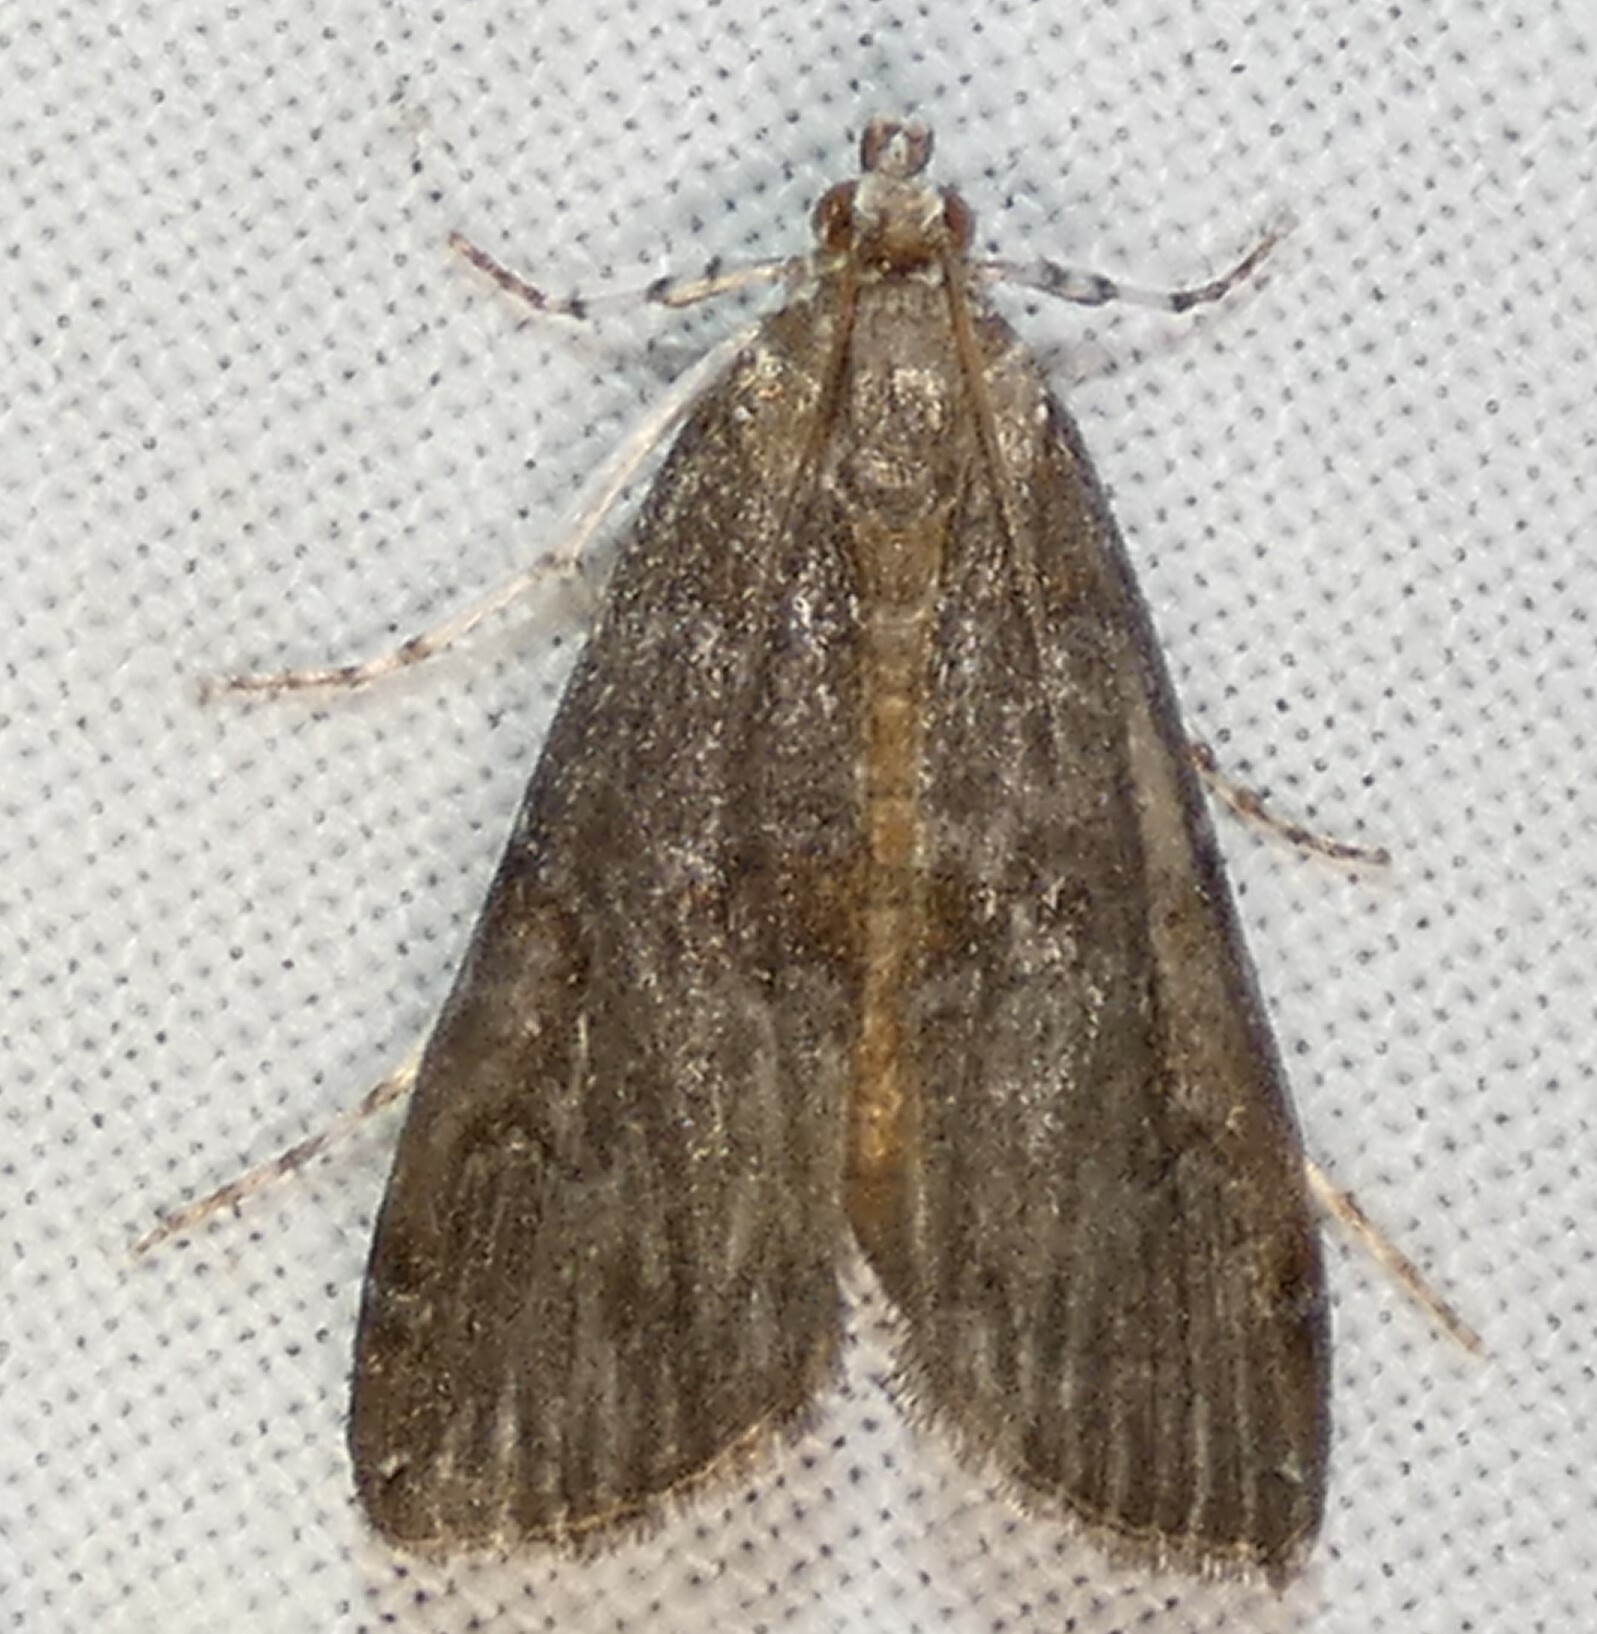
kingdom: Animalia
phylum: Arthropoda
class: Insecta
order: Lepidoptera
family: Crambidae
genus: Elophila
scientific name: Elophila gyralis
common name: Waterlily borer moth
